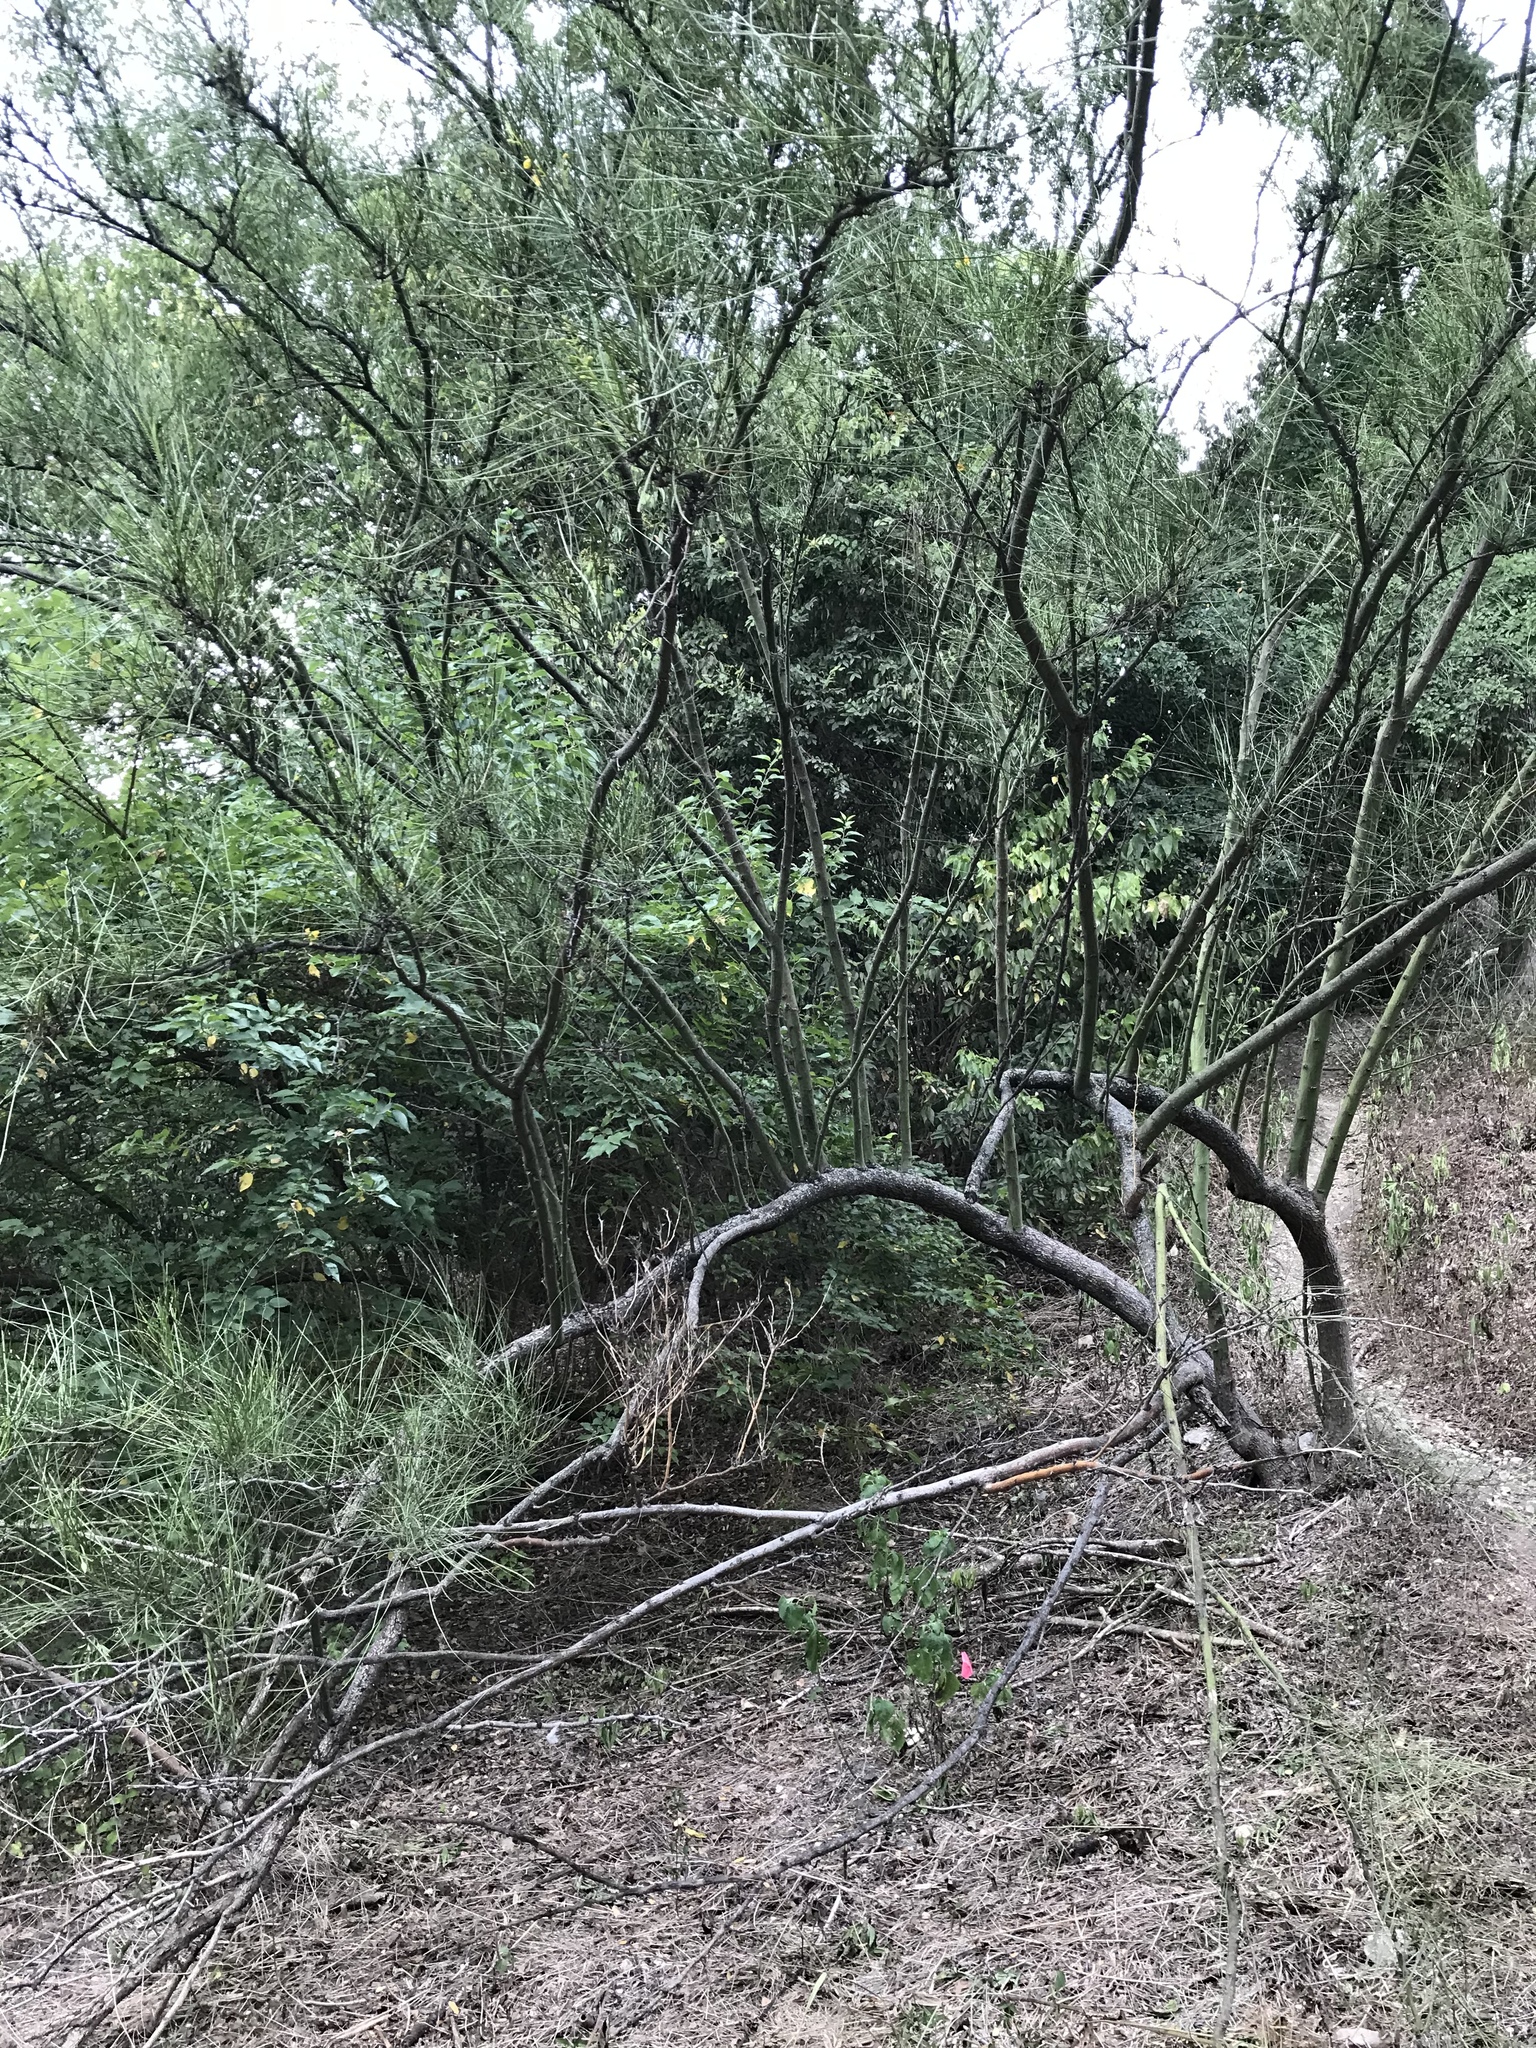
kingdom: Plantae
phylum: Tracheophyta
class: Magnoliopsida
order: Fabales
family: Fabaceae
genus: Parkinsonia
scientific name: Parkinsonia aculeata
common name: Jerusalem thorn
